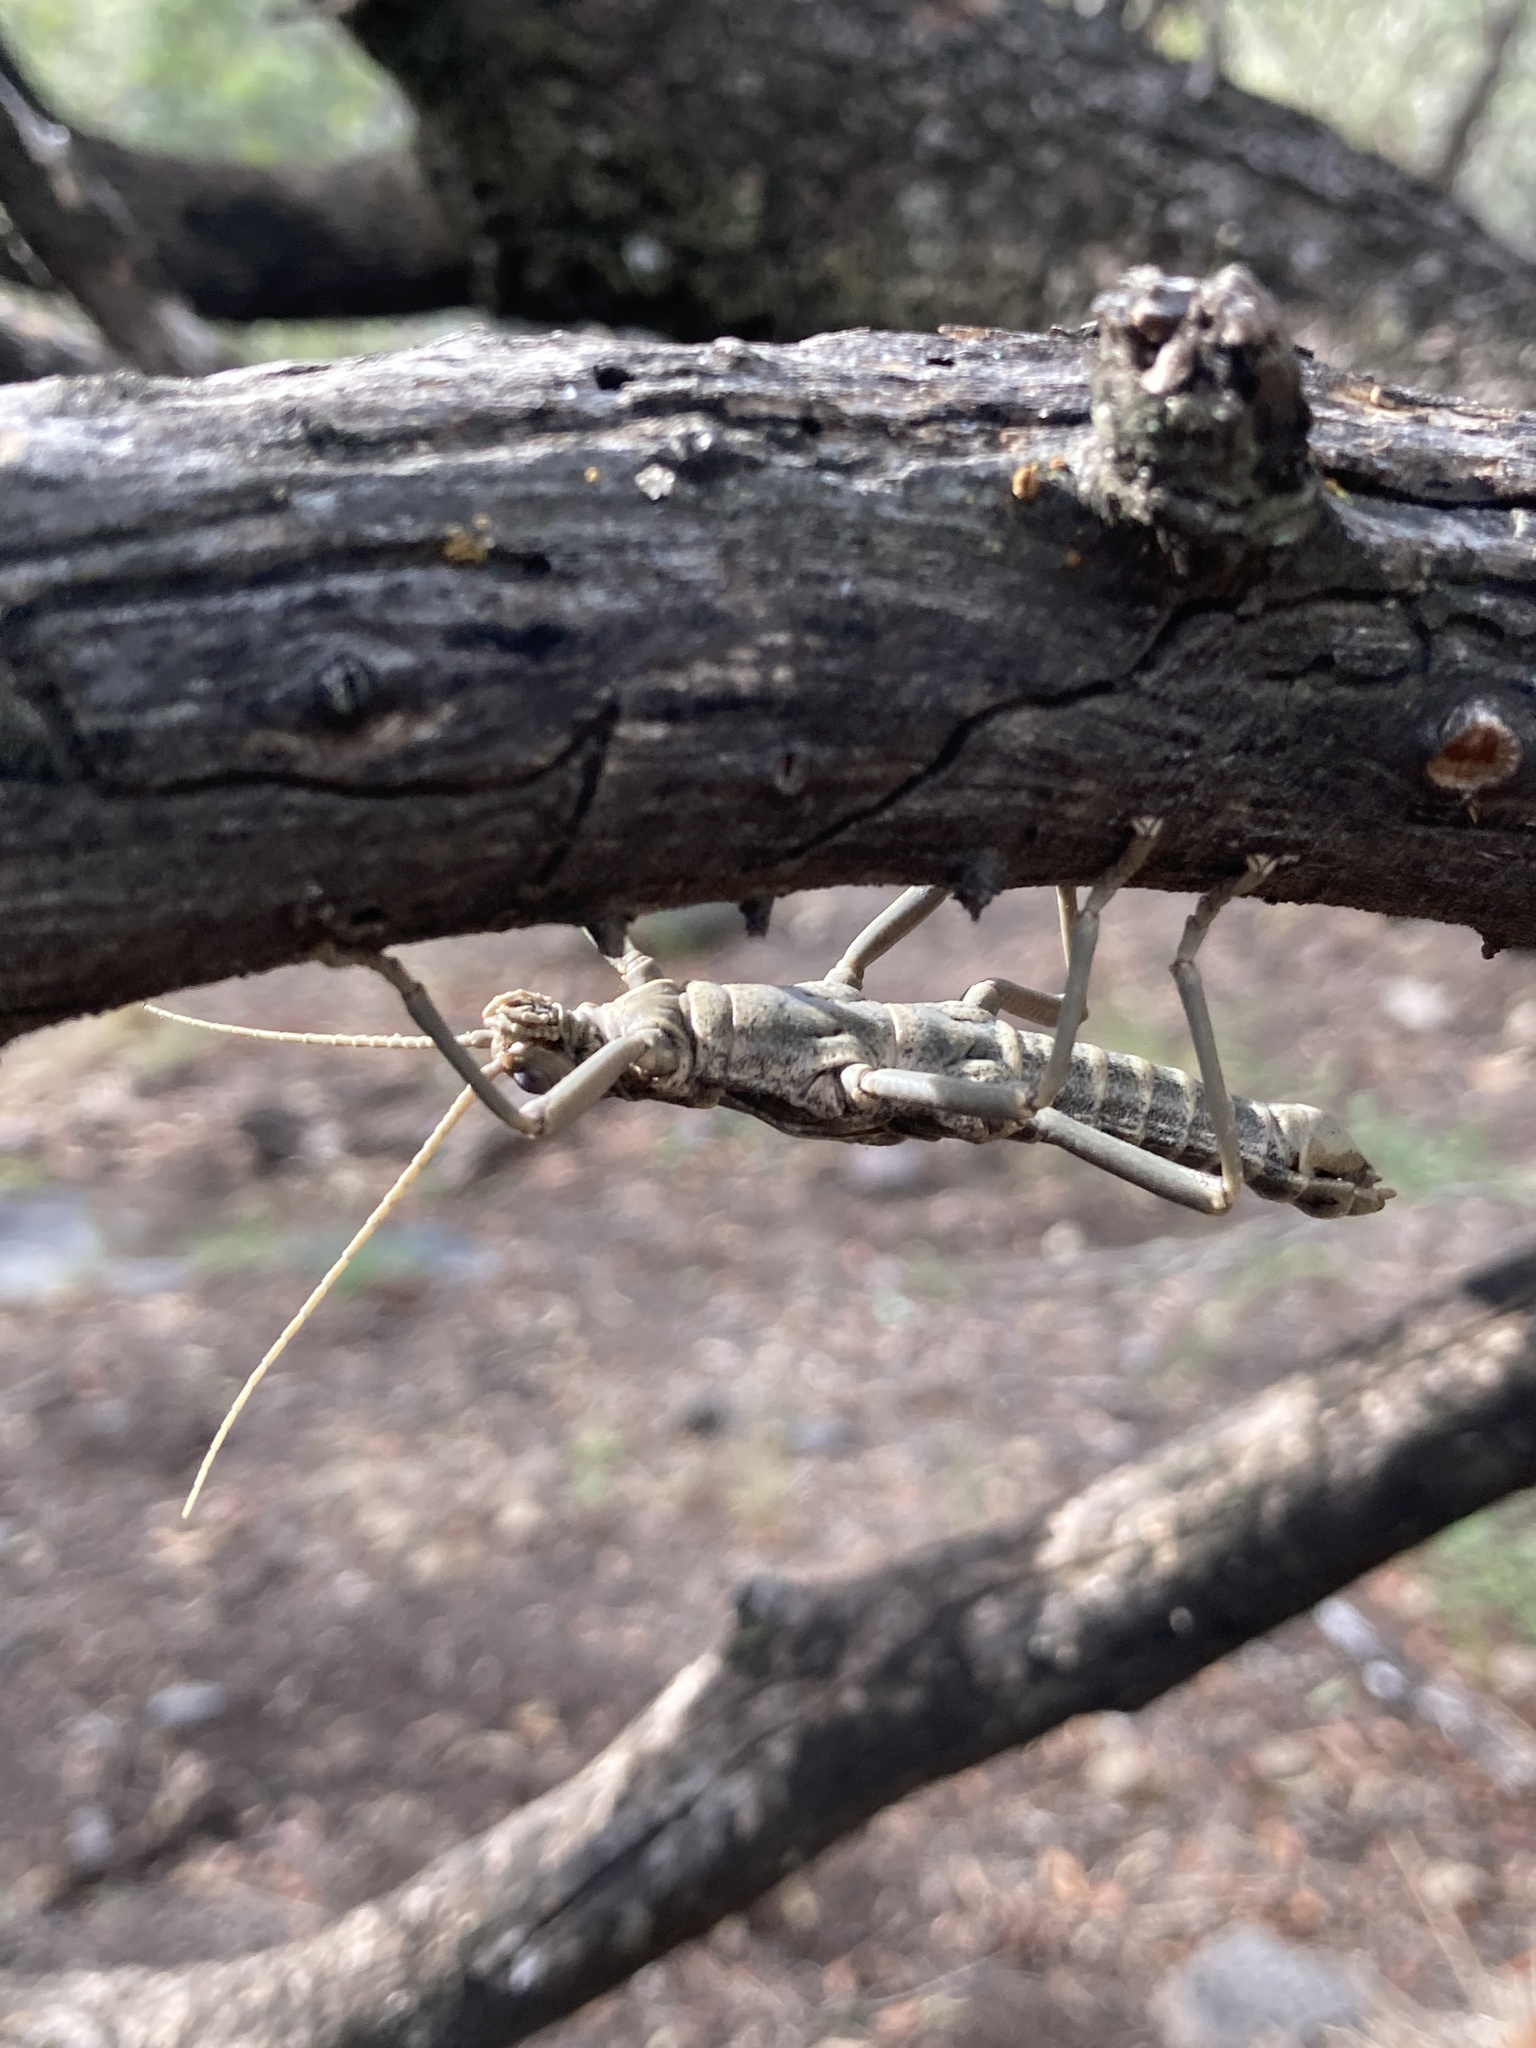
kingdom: Animalia
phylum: Arthropoda
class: Insecta
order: Phasmida
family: Agathemeridae
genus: Agathemera
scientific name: Agathemera luteola
